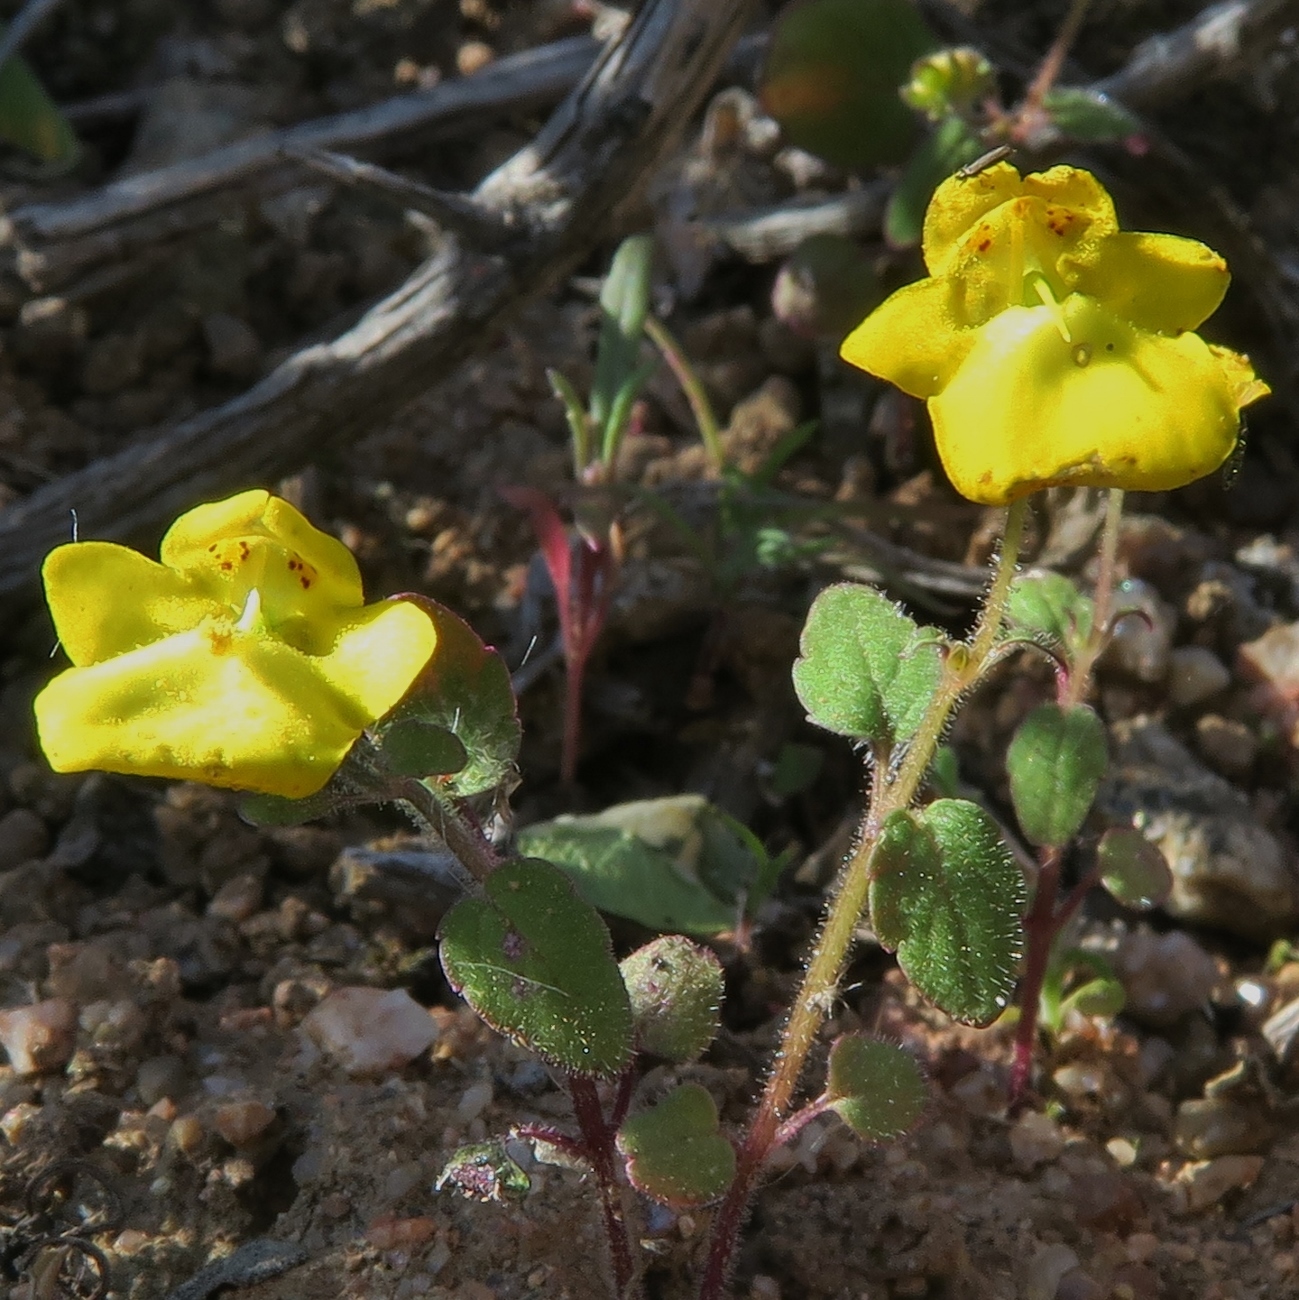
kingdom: Plantae
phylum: Tracheophyta
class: Magnoliopsida
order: Lamiales
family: Scrophulariaceae
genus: Hemimeris
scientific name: Hemimeris racemosa
